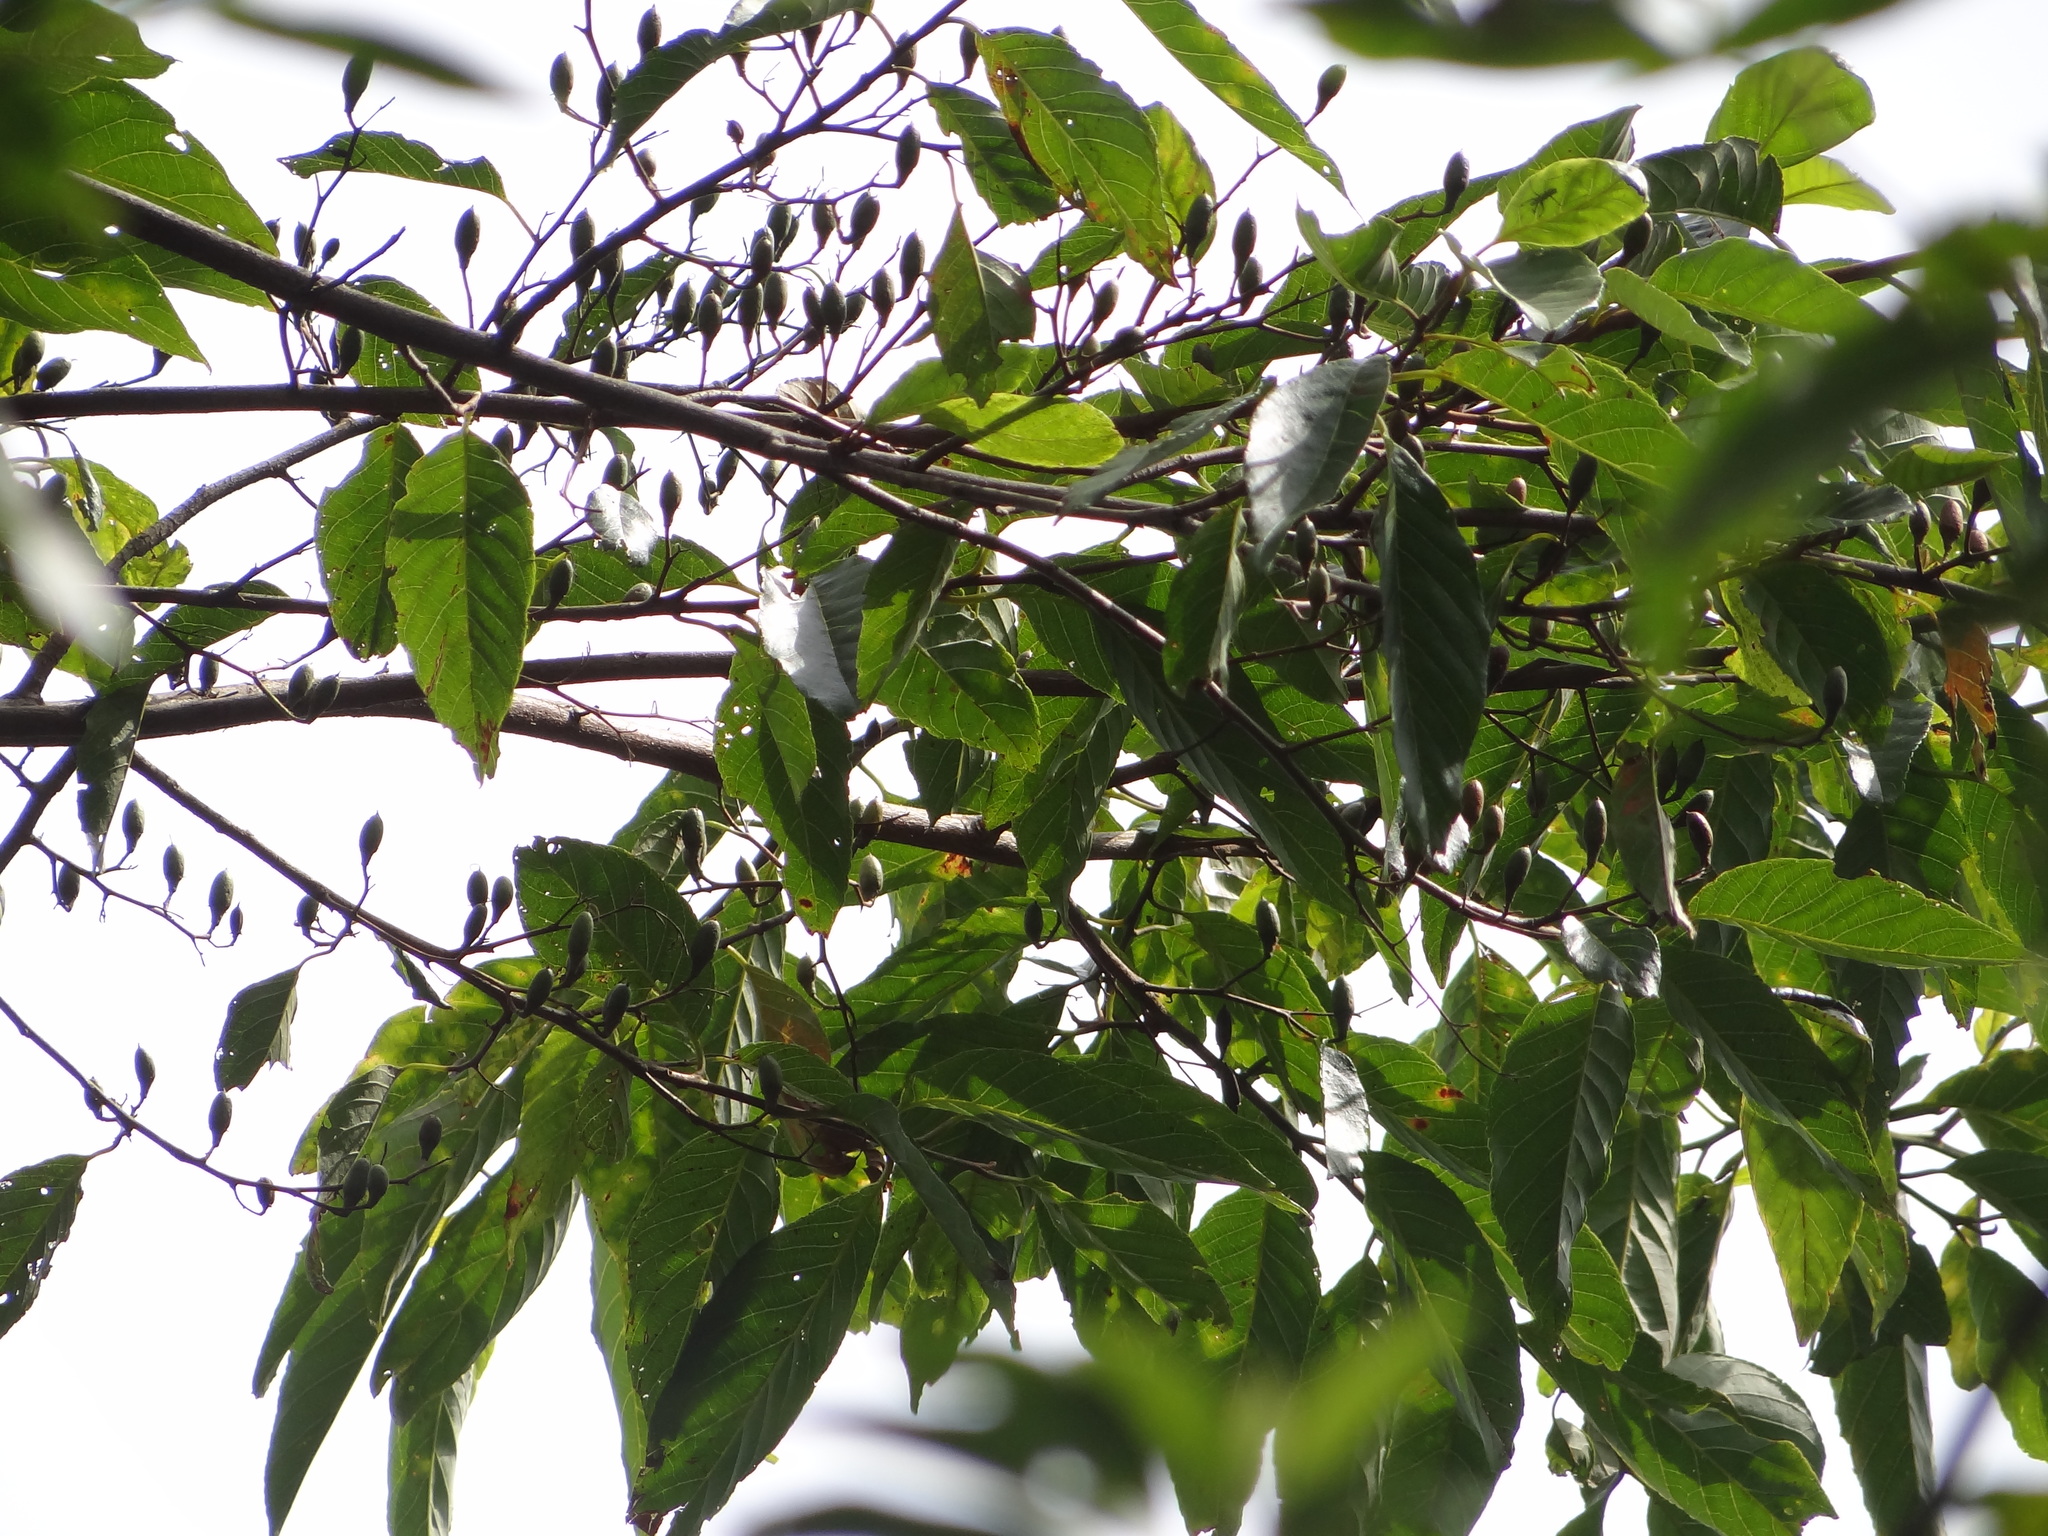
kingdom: Plantae
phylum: Tracheophyta
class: Magnoliopsida
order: Ericales
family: Styracaceae
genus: Alniphyllum
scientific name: Alniphyllum pterospermum
